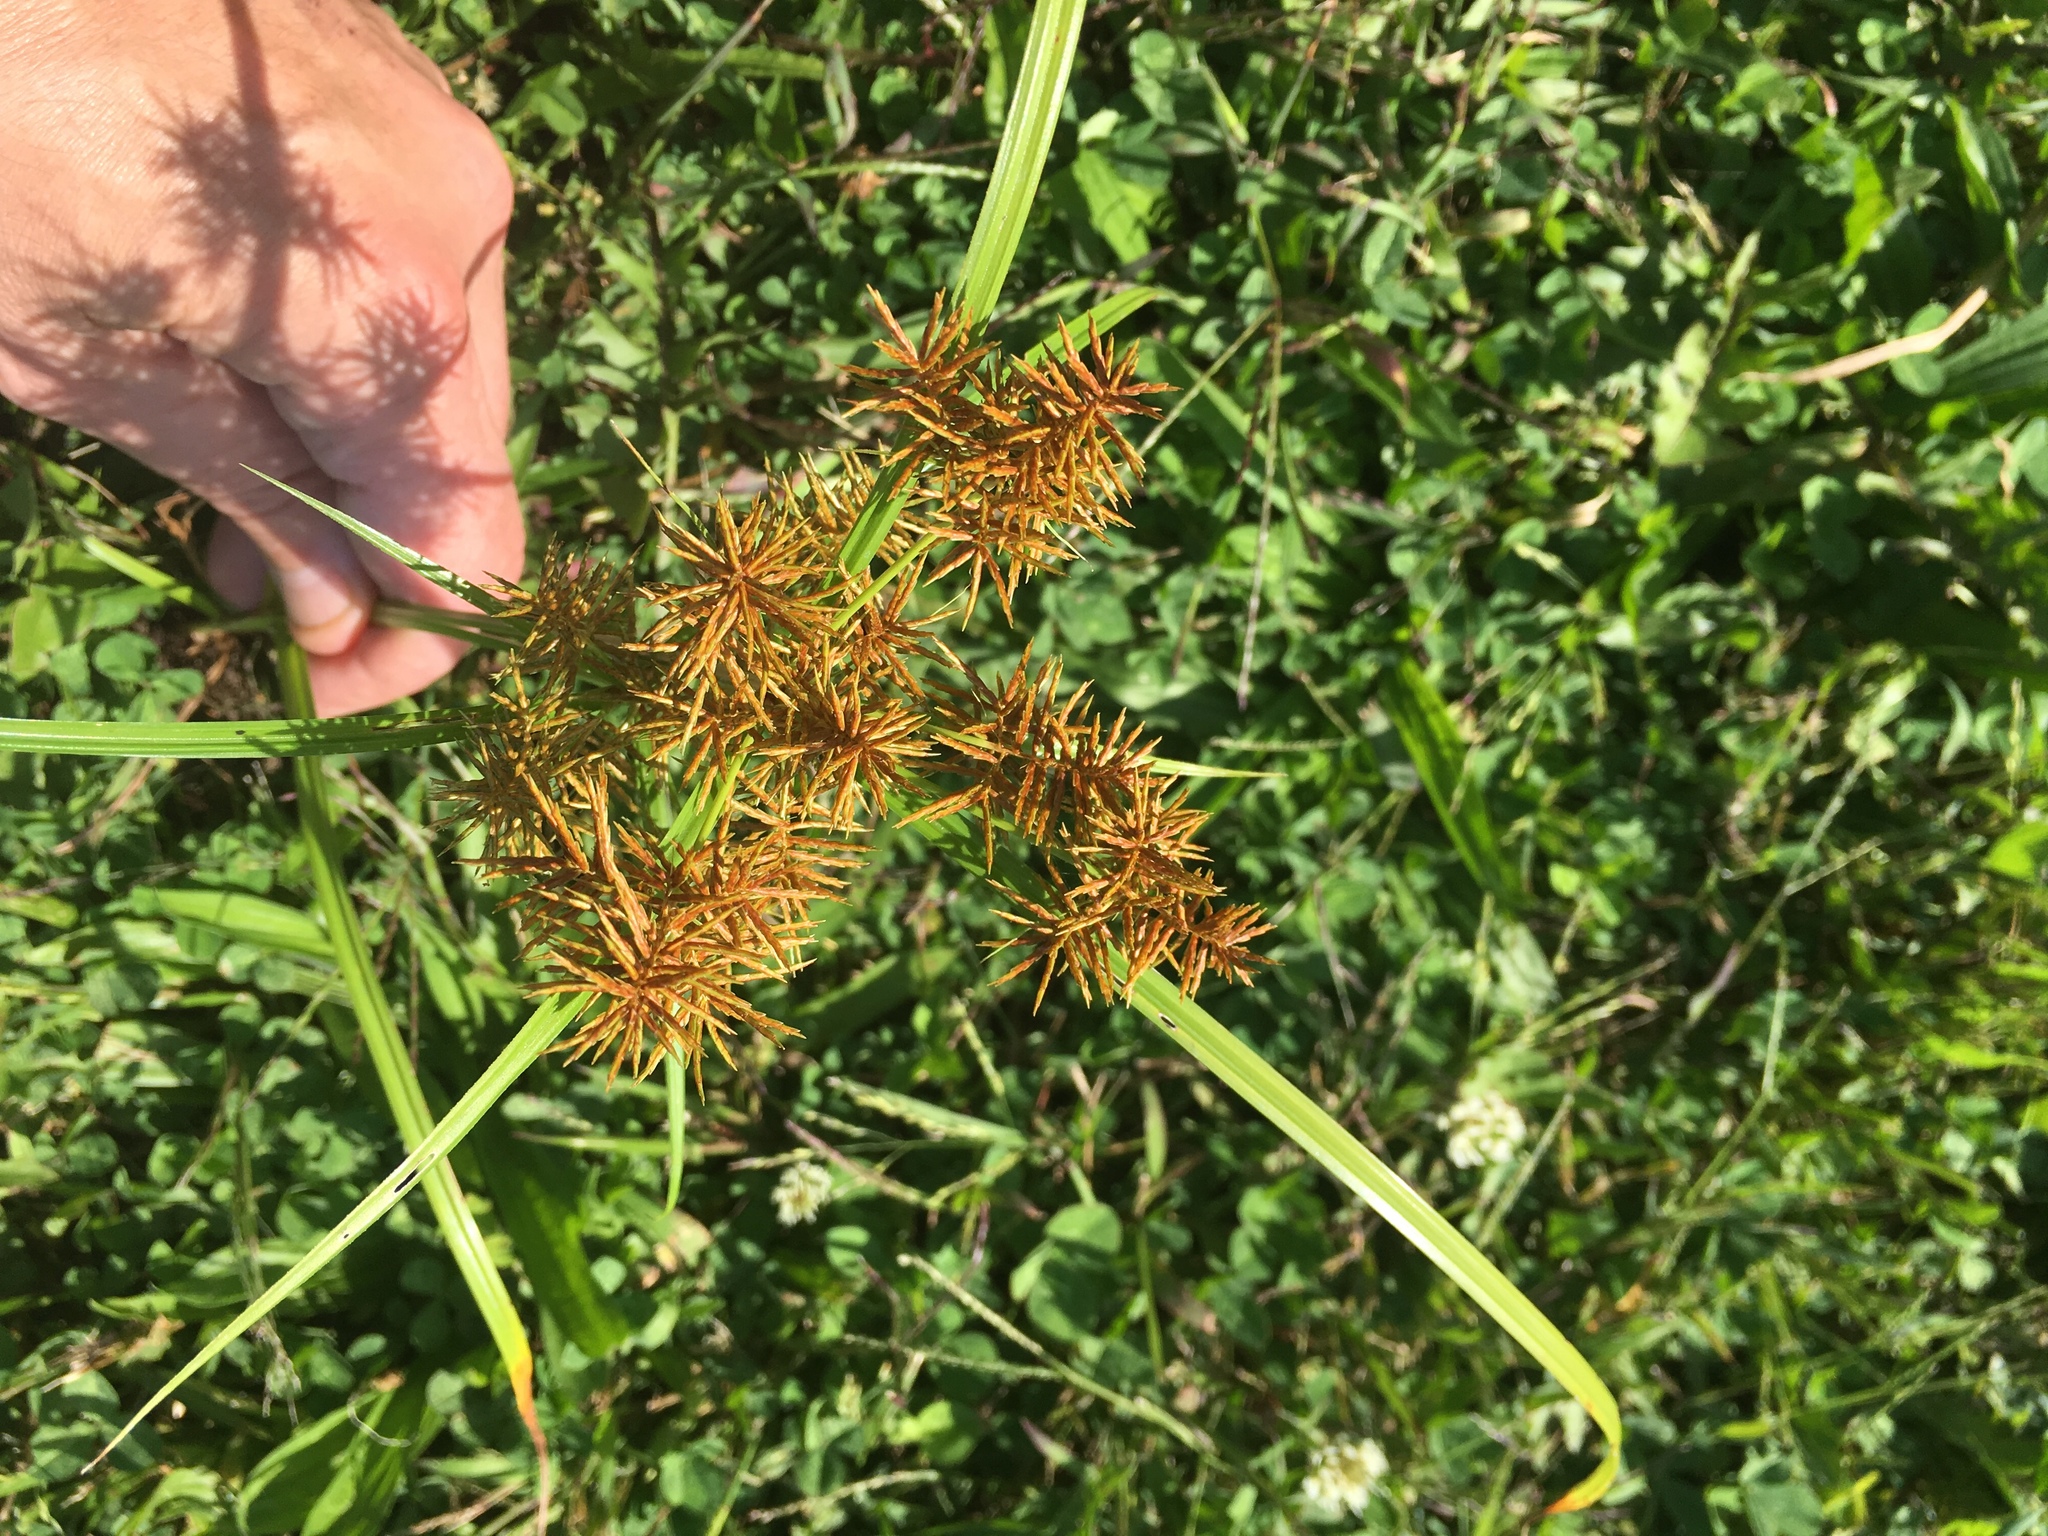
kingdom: Plantae
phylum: Tracheophyta
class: Liliopsida
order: Poales
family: Cyperaceae
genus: Cyperus
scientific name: Cyperus odoratus
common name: Fragrant flatsedge
